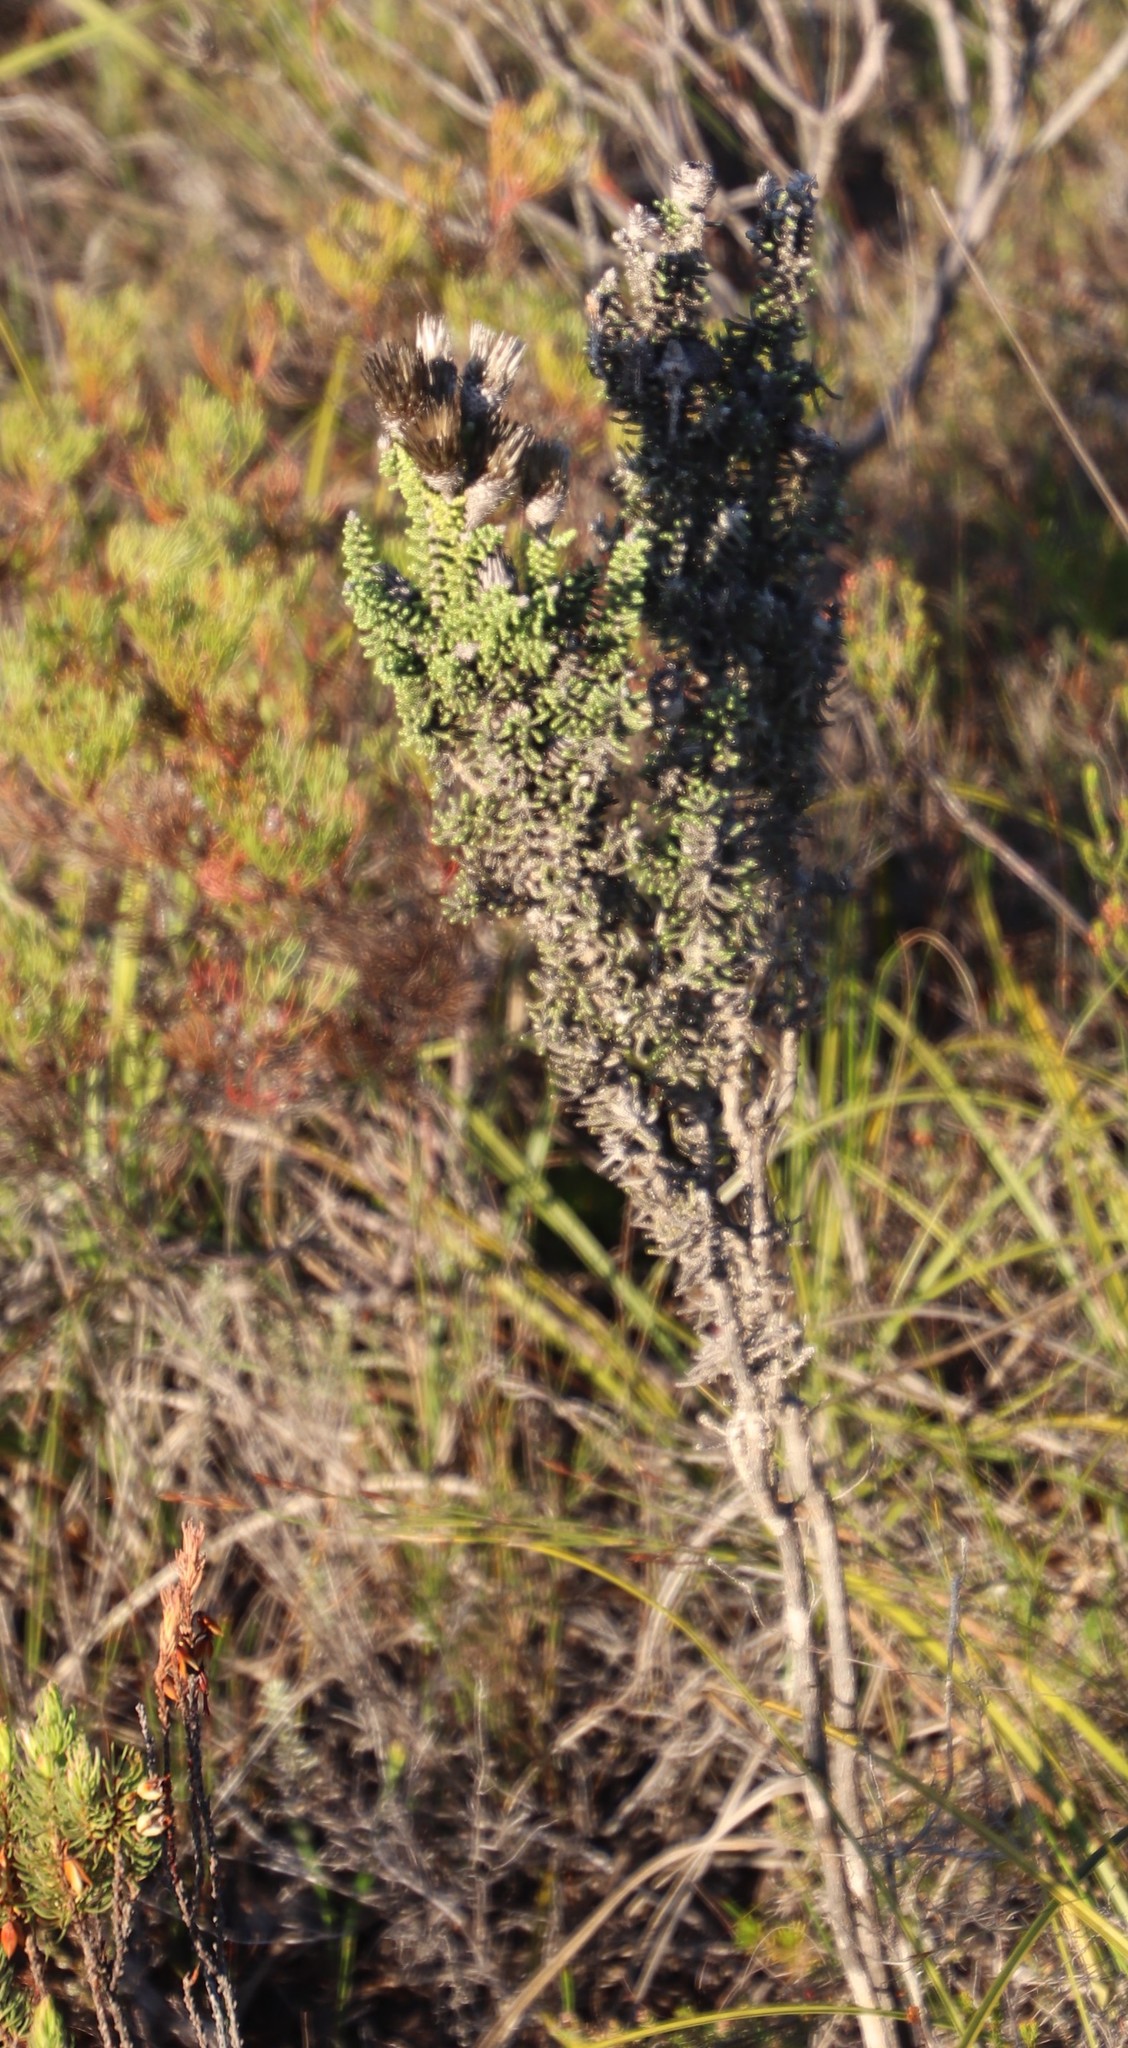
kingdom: Plantae
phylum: Tracheophyta
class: Magnoliopsida
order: Asterales
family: Asteraceae
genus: Phaenocoma
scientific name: Phaenocoma prolifera
